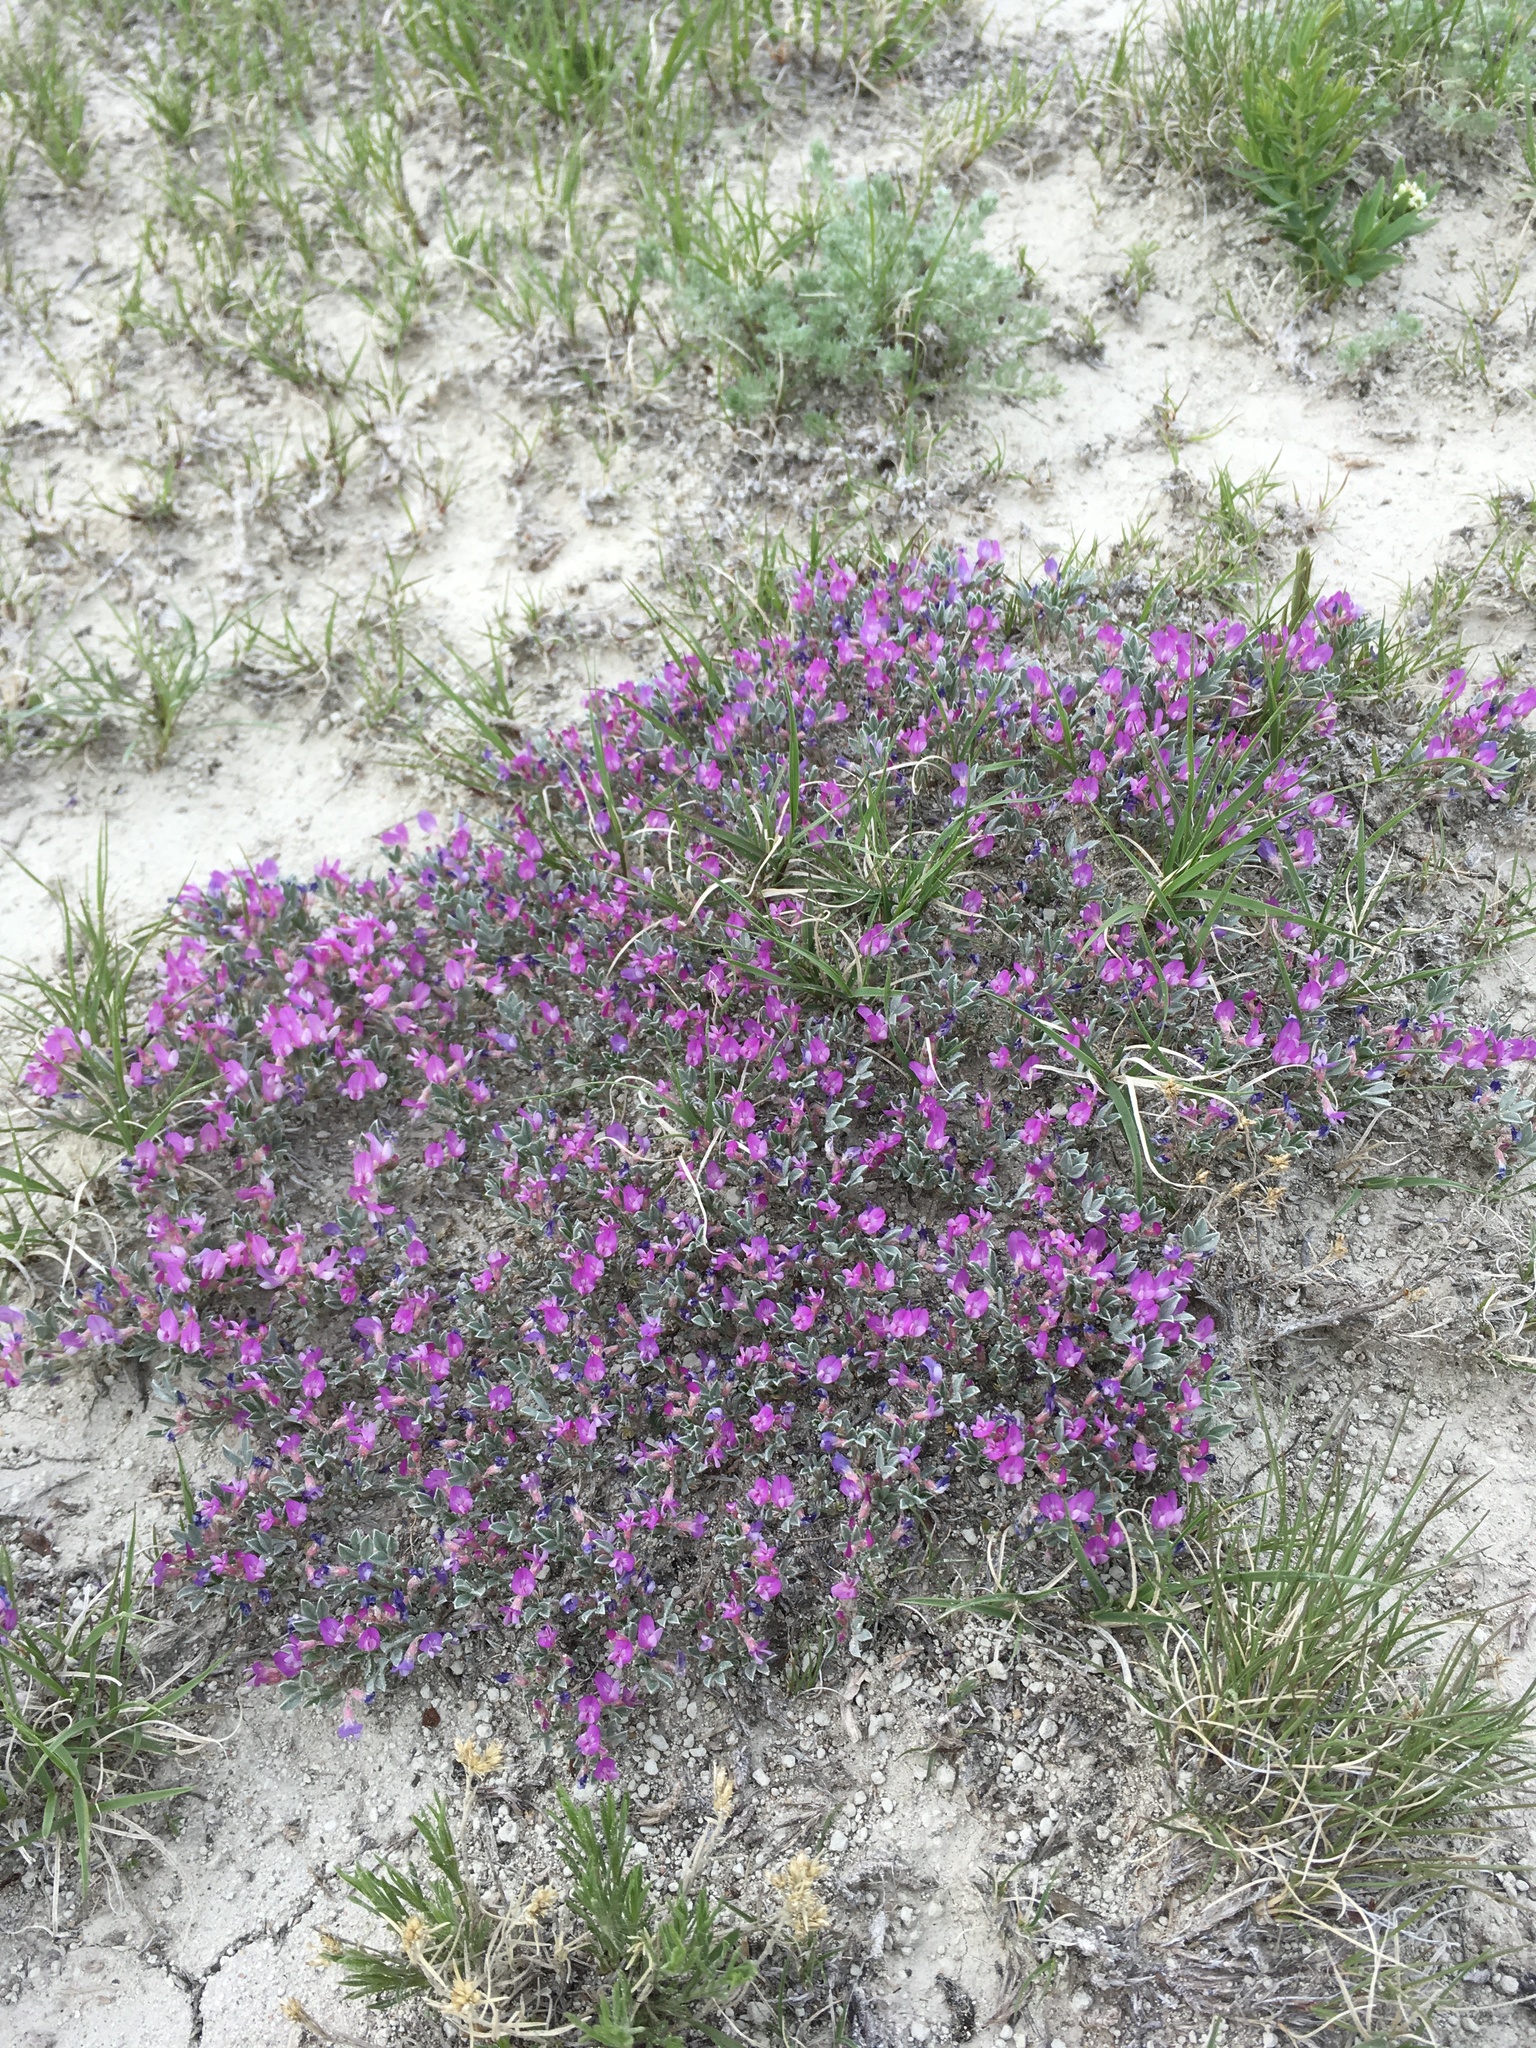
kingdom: Plantae
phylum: Tracheophyta
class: Magnoliopsida
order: Fabales
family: Fabaceae
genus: Astragalus
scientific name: Astragalus sericoleucus
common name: Silky orophaca
